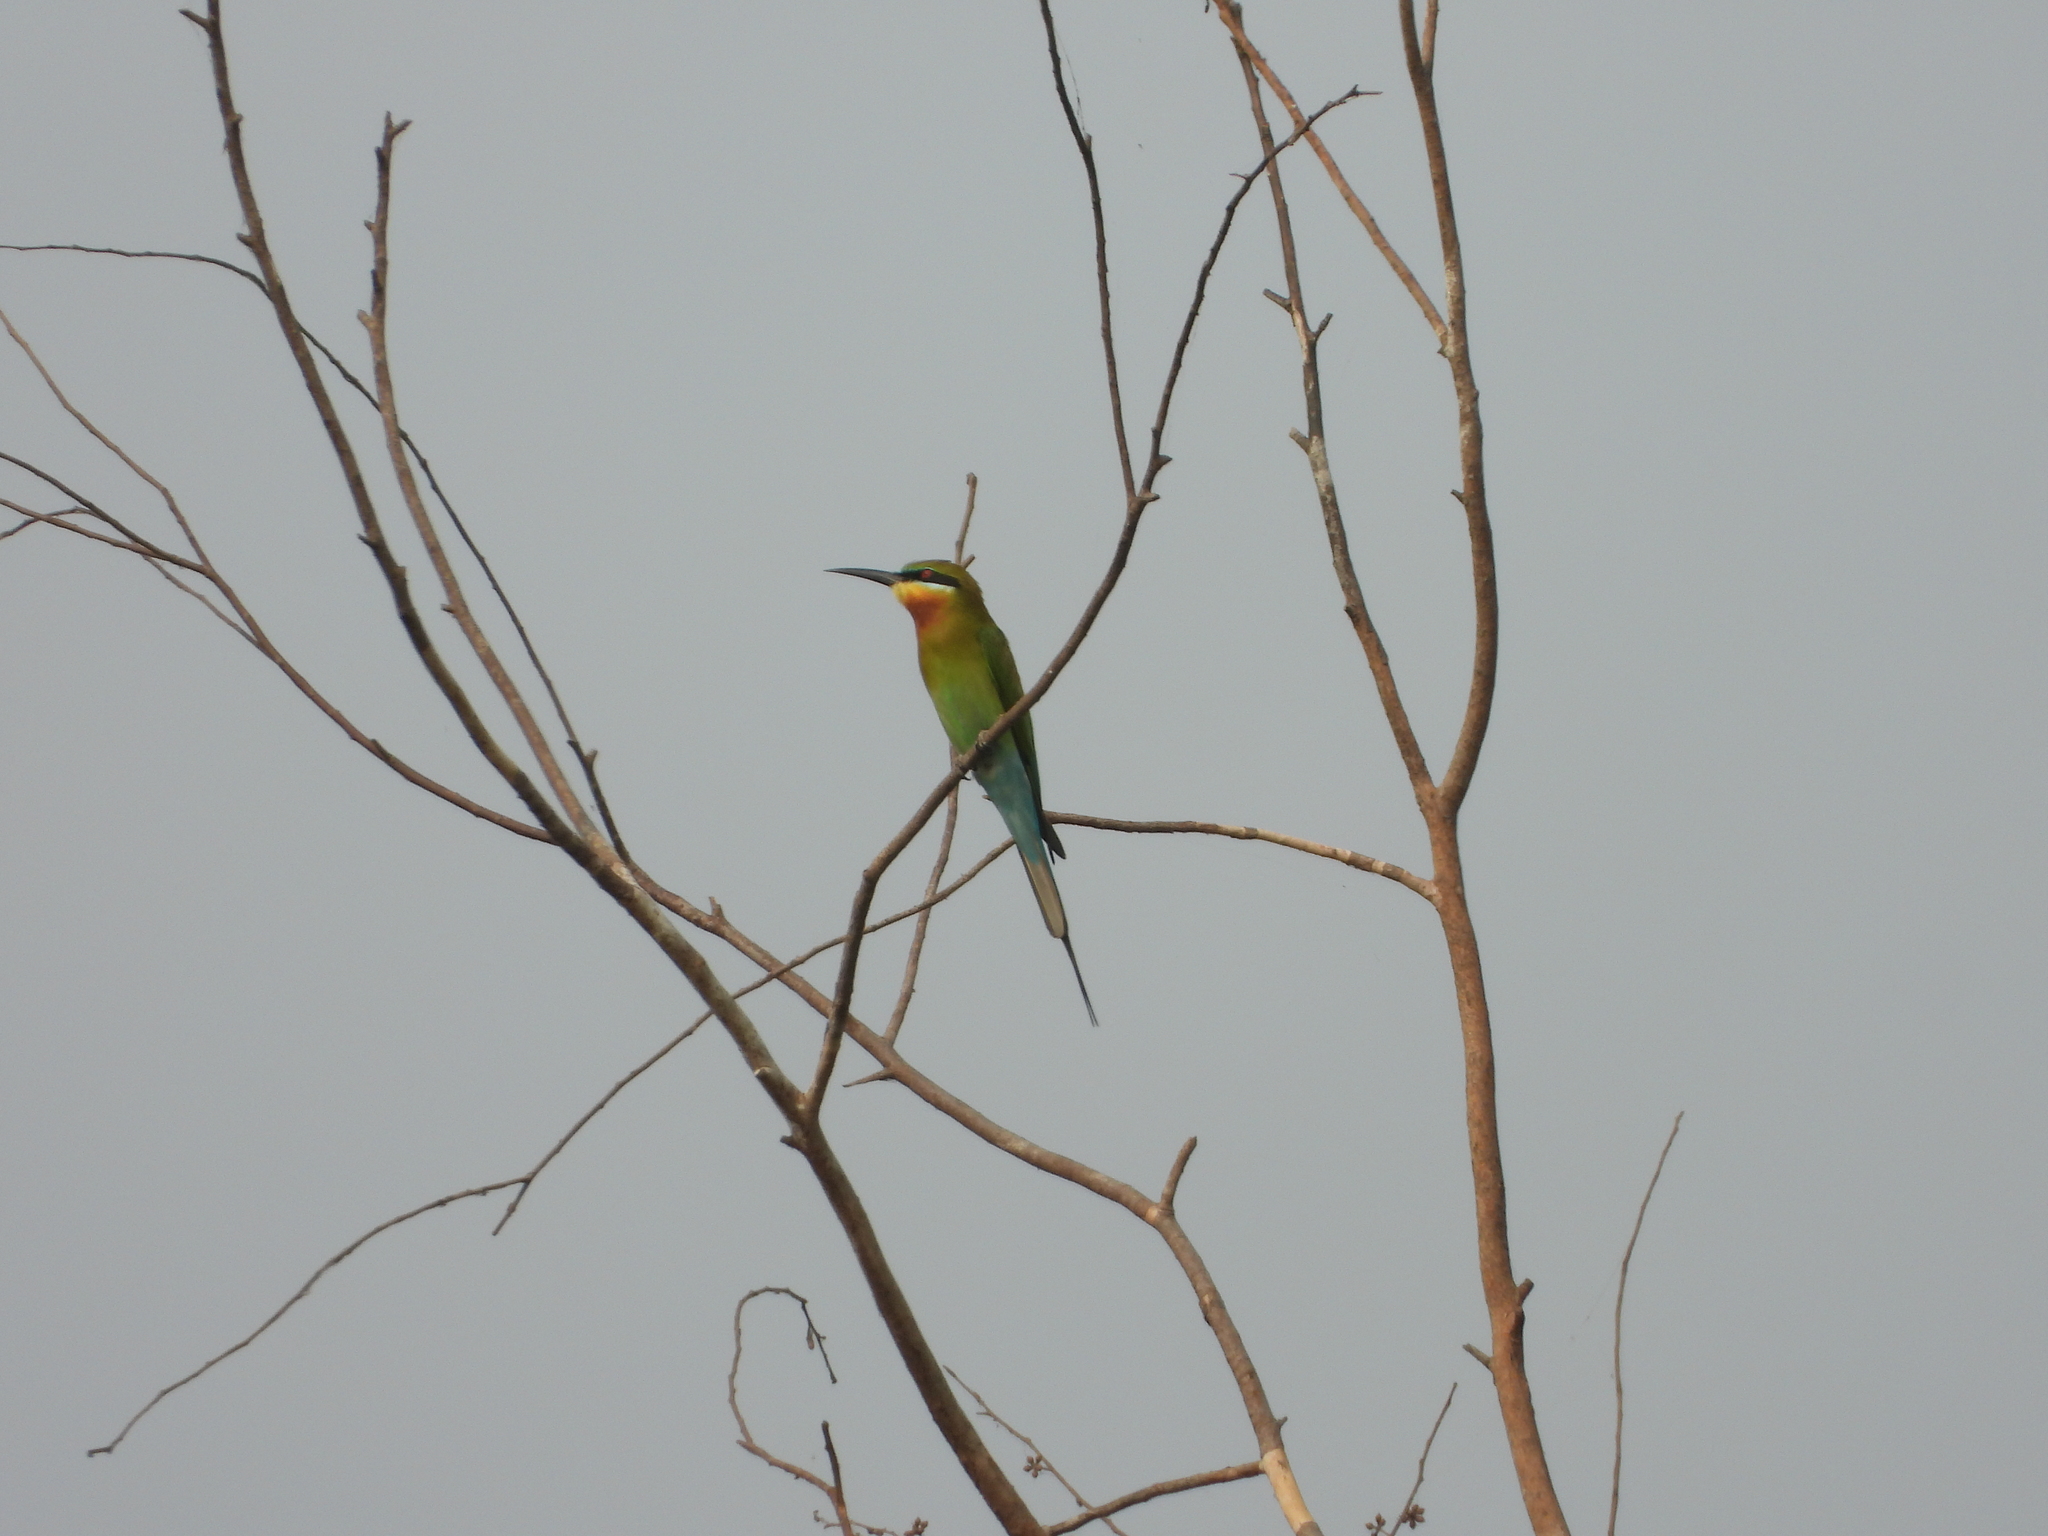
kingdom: Animalia
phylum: Chordata
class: Aves
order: Coraciiformes
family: Meropidae
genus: Merops
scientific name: Merops philippinus
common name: Blue-tailed bee-eater
